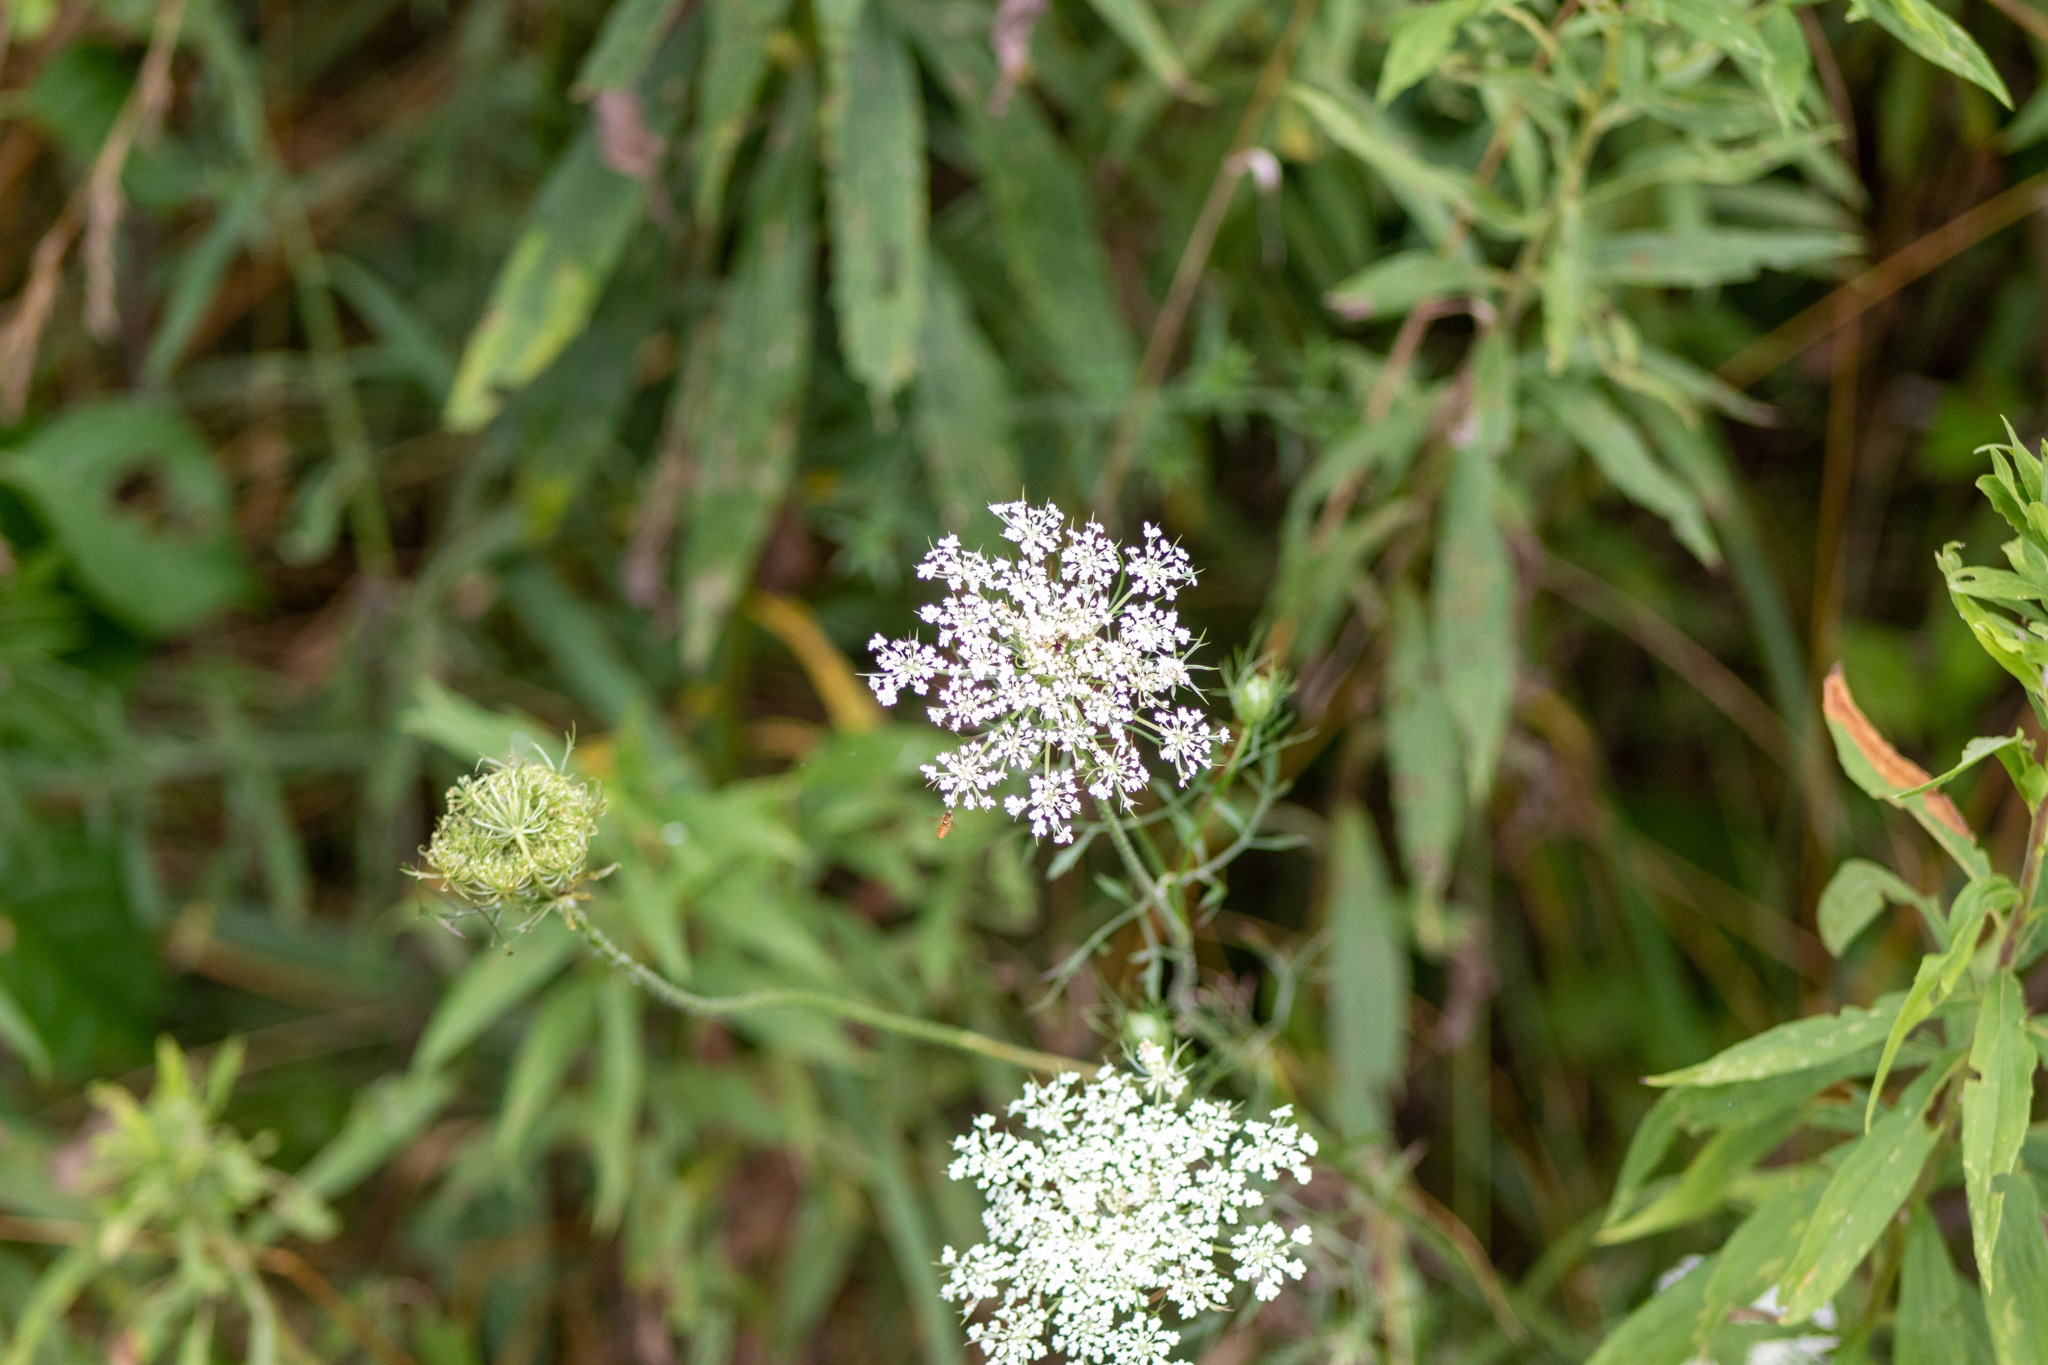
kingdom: Plantae
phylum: Tracheophyta
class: Magnoliopsida
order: Apiales
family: Apiaceae
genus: Daucus
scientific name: Daucus carota
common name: Wild carrot
